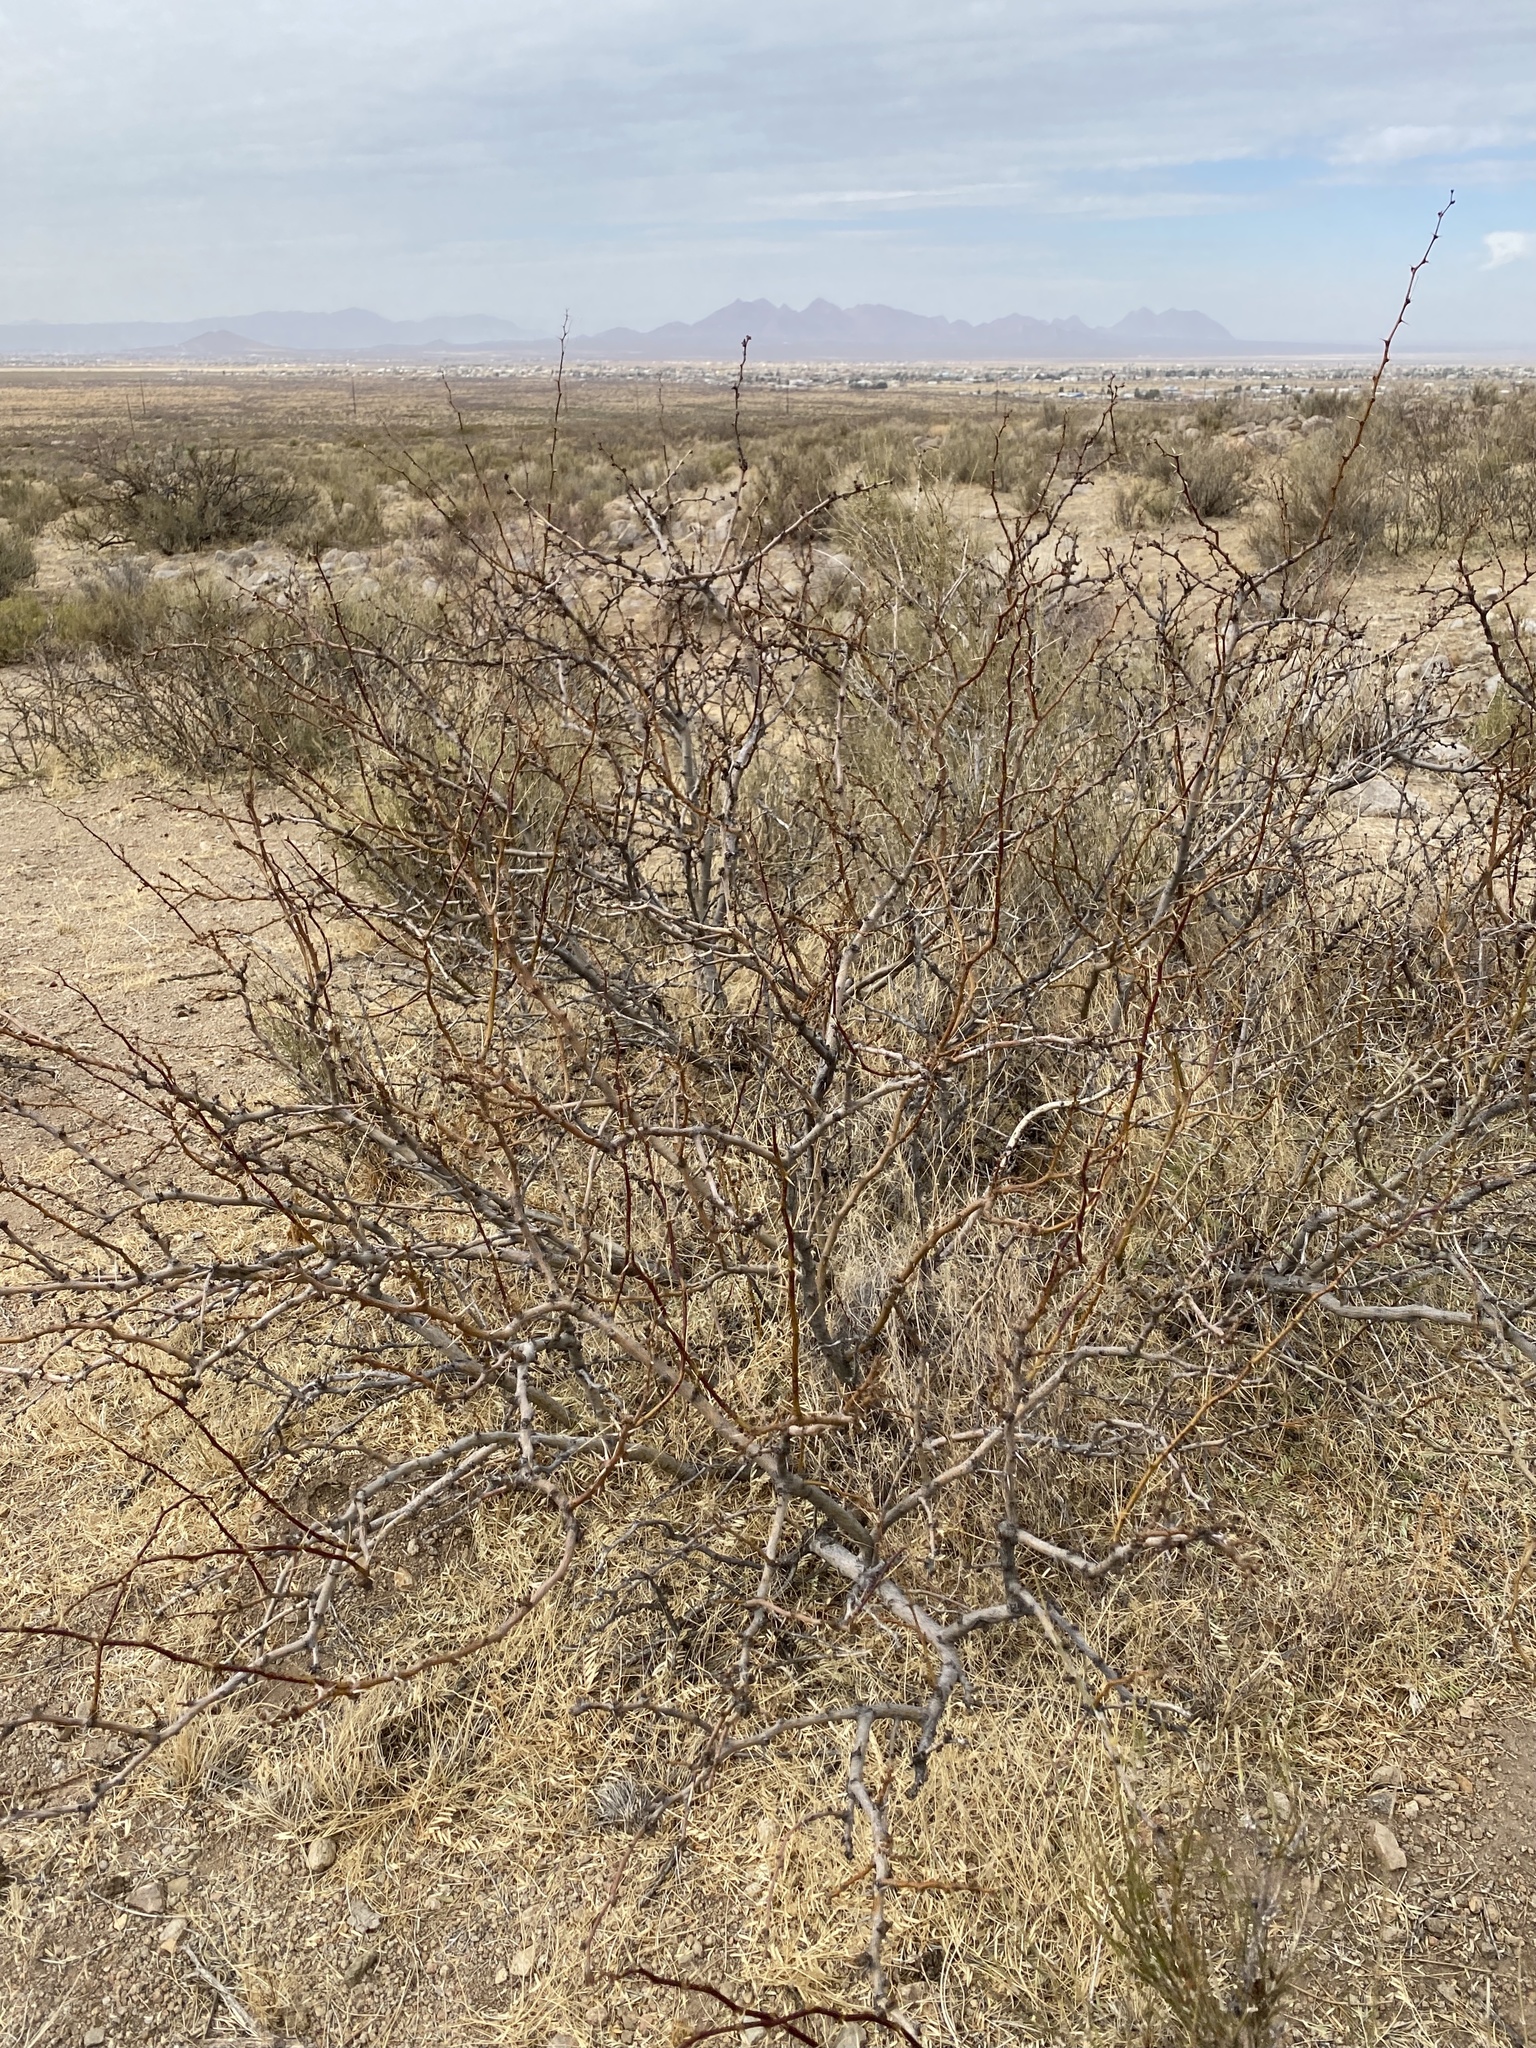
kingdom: Plantae
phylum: Tracheophyta
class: Magnoliopsida
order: Fabales
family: Fabaceae
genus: Prosopis
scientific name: Prosopis glandulosa
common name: Honey mesquite
